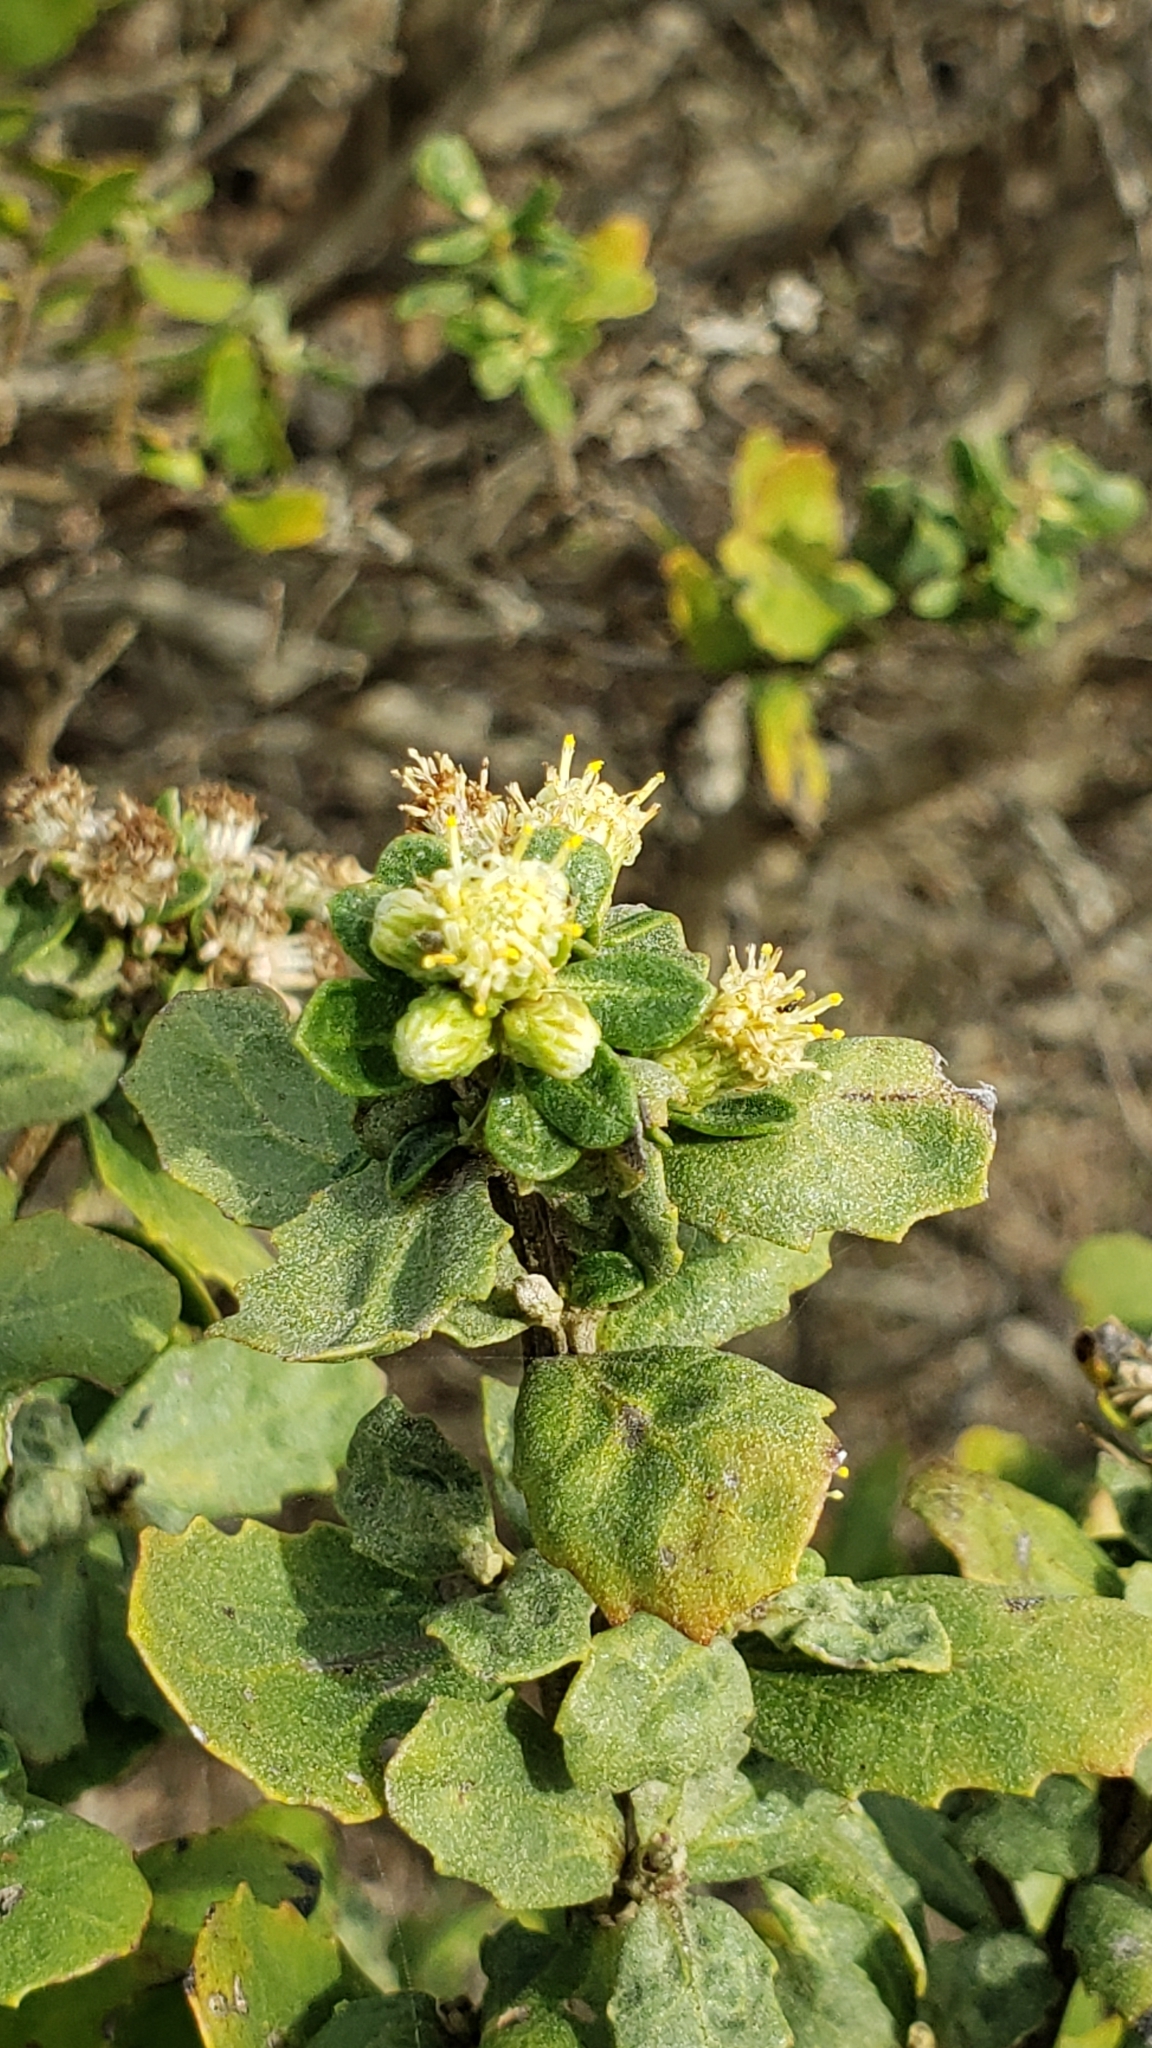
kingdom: Plantae
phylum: Tracheophyta
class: Magnoliopsida
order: Asterales
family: Asteraceae
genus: Baccharis
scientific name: Baccharis pilularis
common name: Coyotebrush
